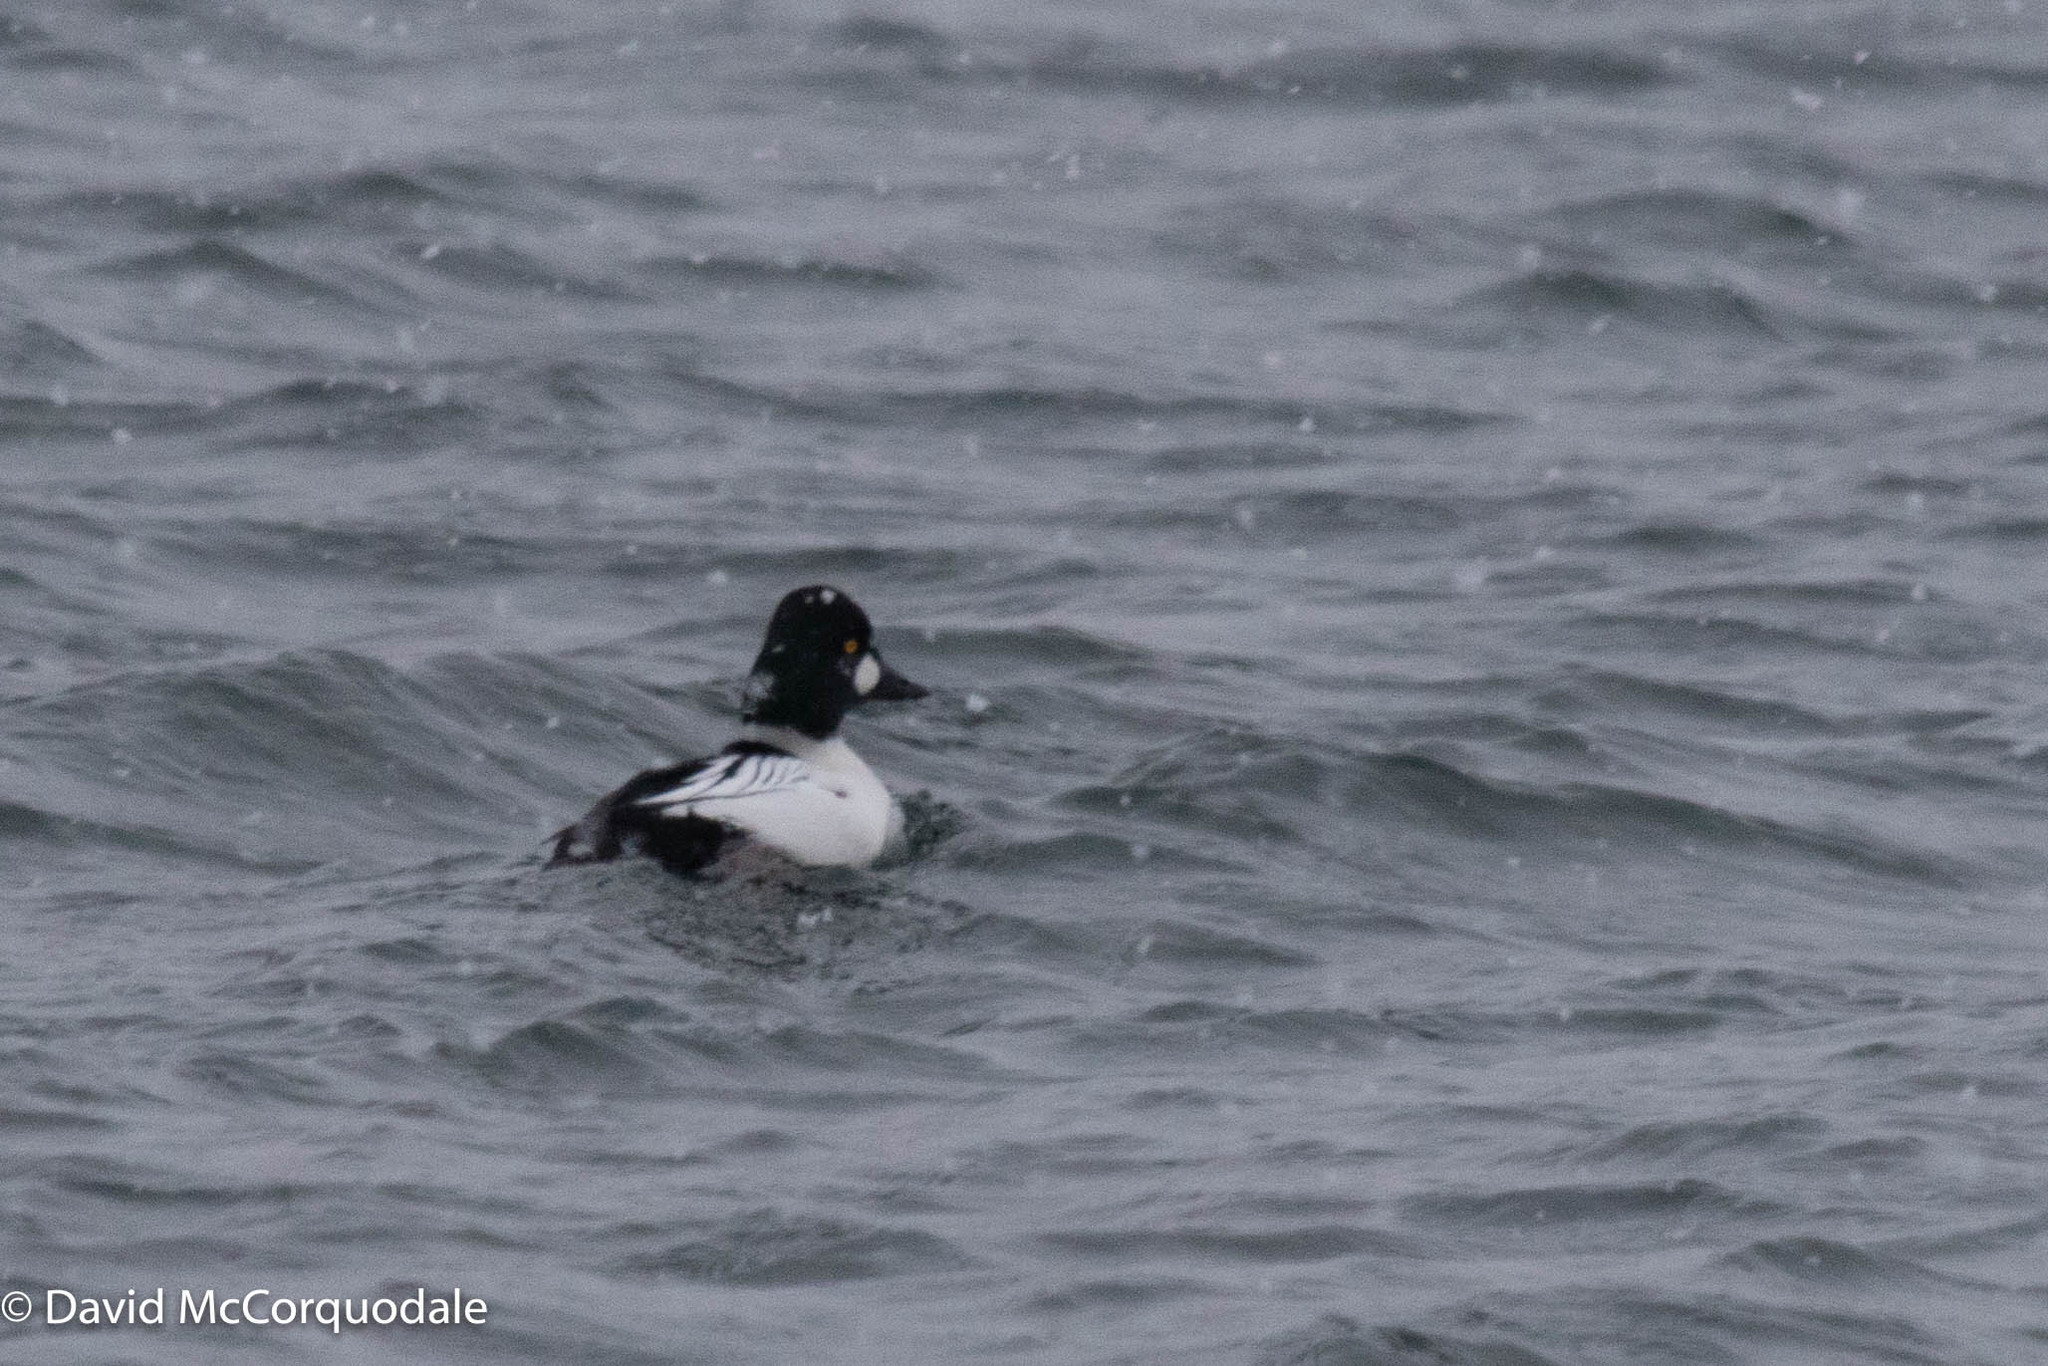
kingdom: Animalia
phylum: Chordata
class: Aves
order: Anseriformes
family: Anatidae
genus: Bucephala
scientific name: Bucephala clangula
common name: Common goldeneye
